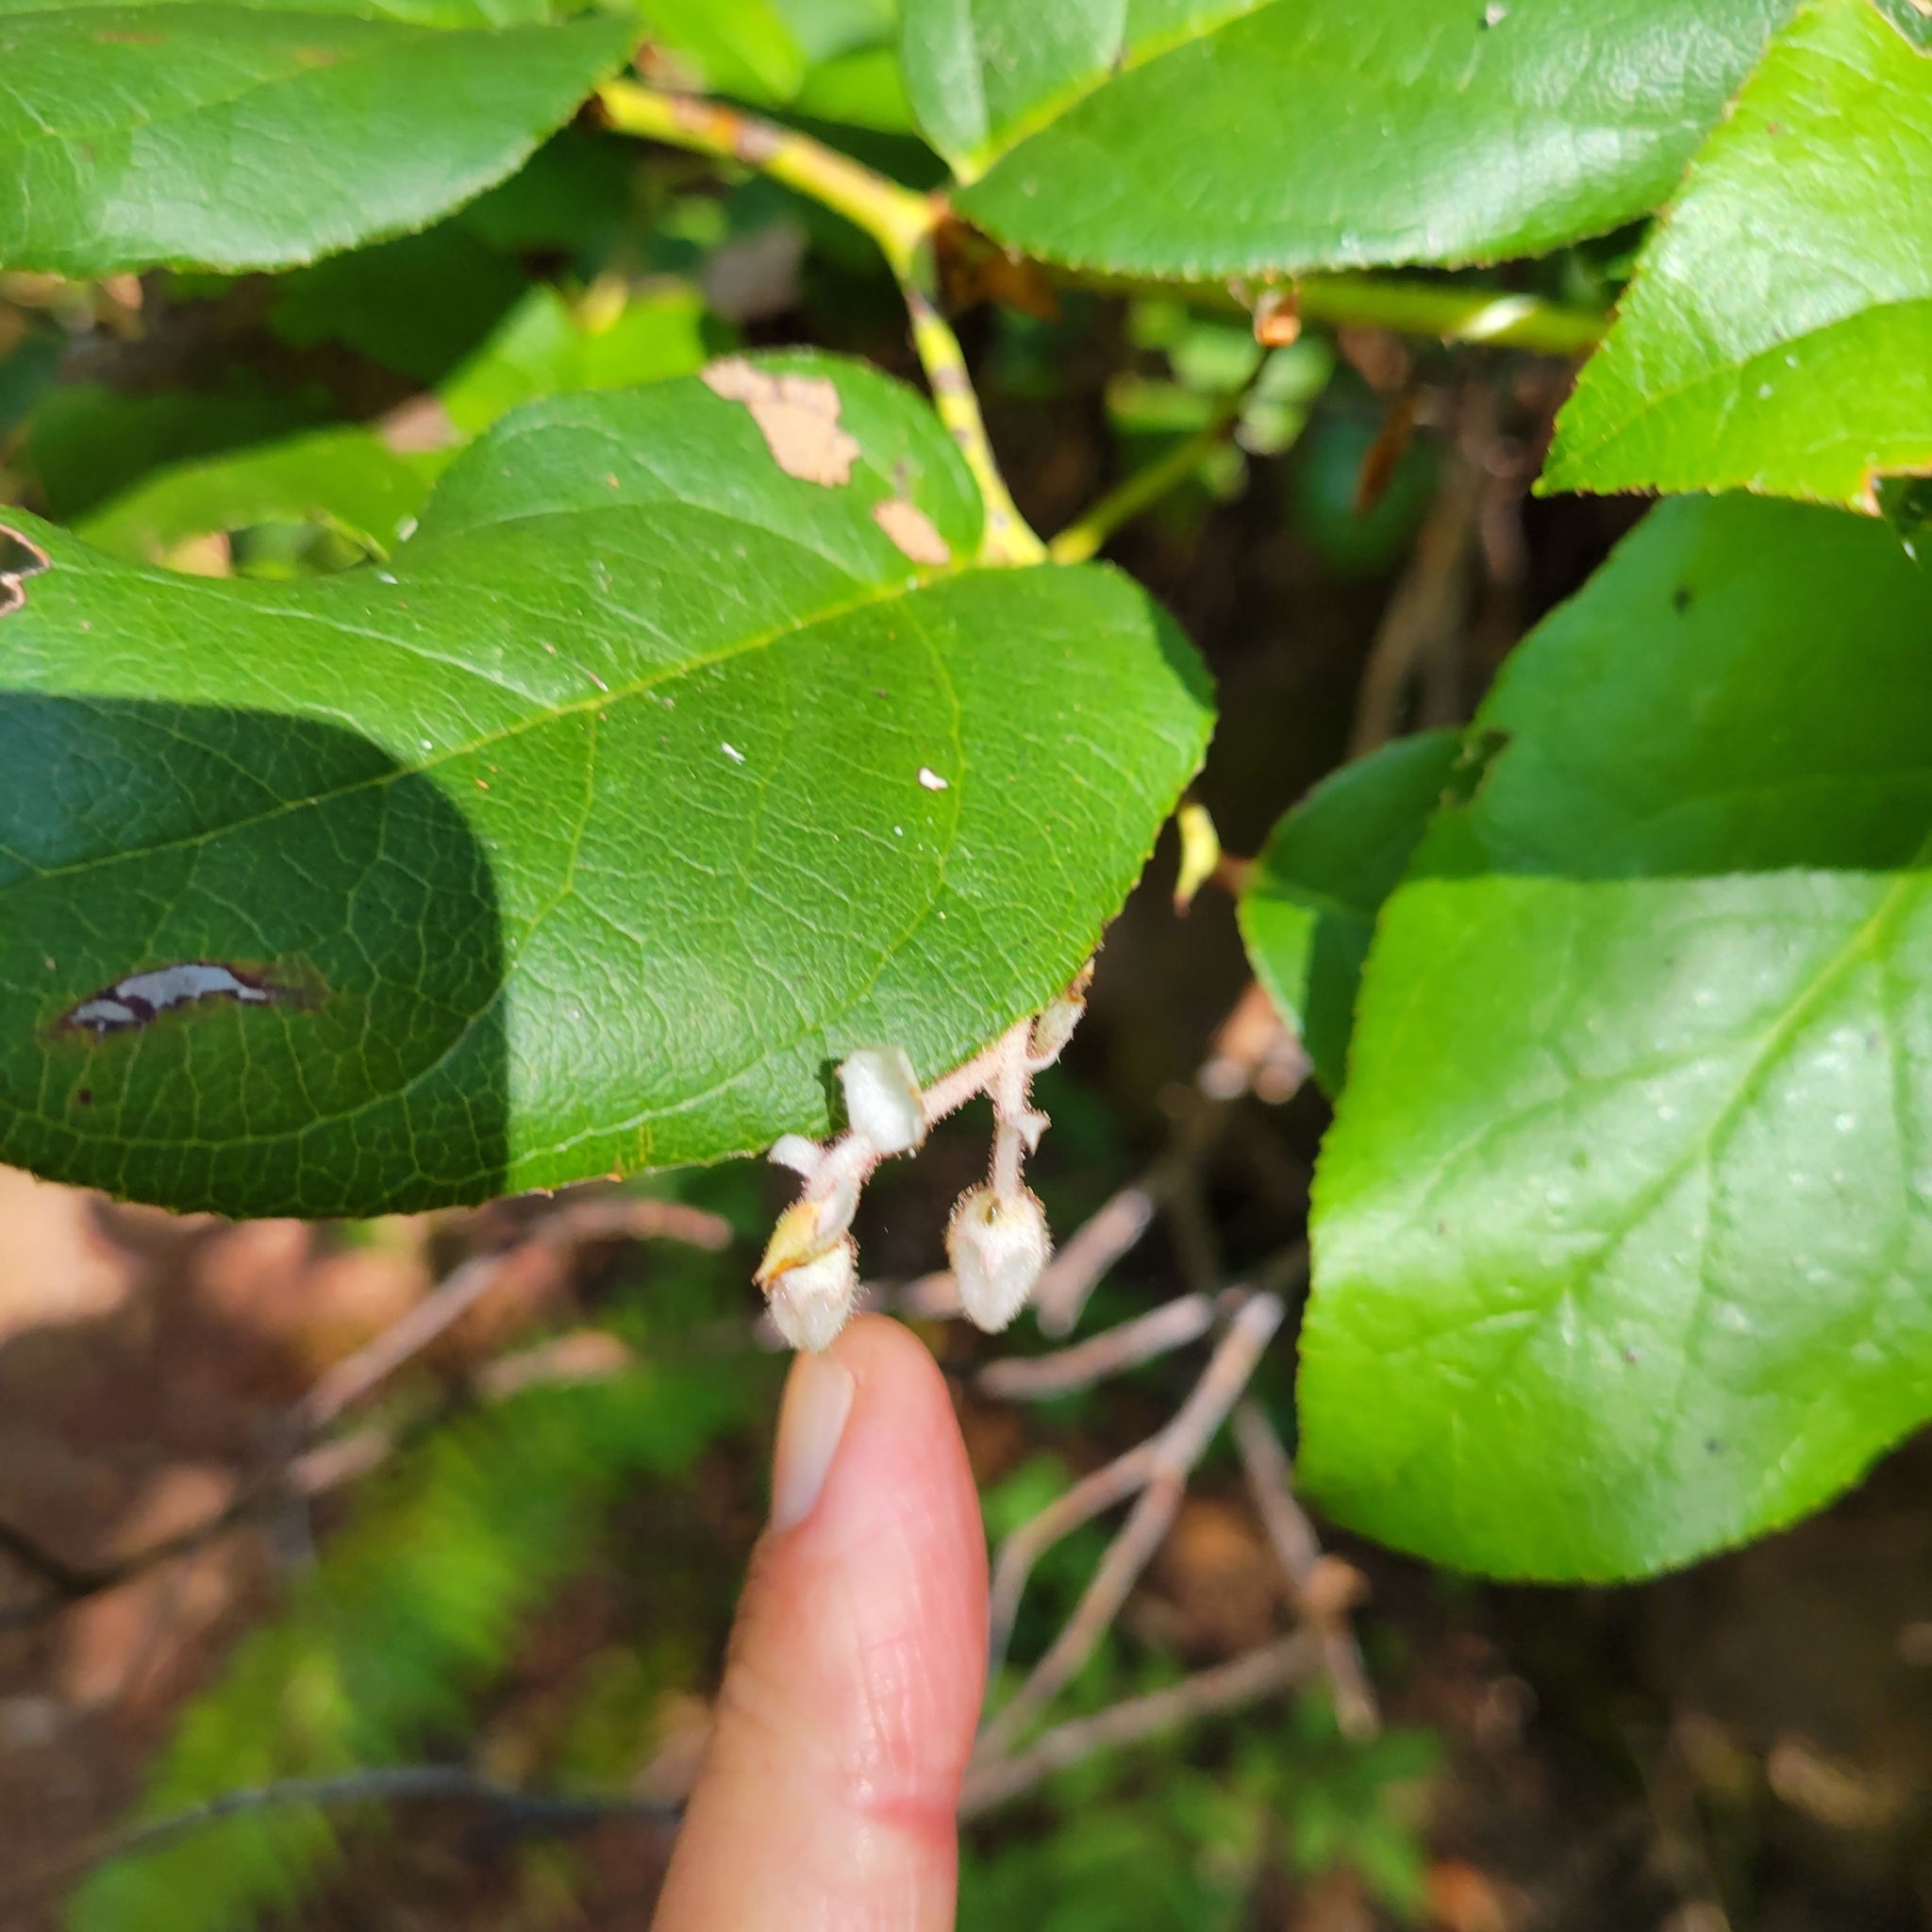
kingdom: Plantae
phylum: Tracheophyta
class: Magnoliopsida
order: Ericales
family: Ericaceae
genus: Gaultheria
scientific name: Gaultheria shallon
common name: Shallon
